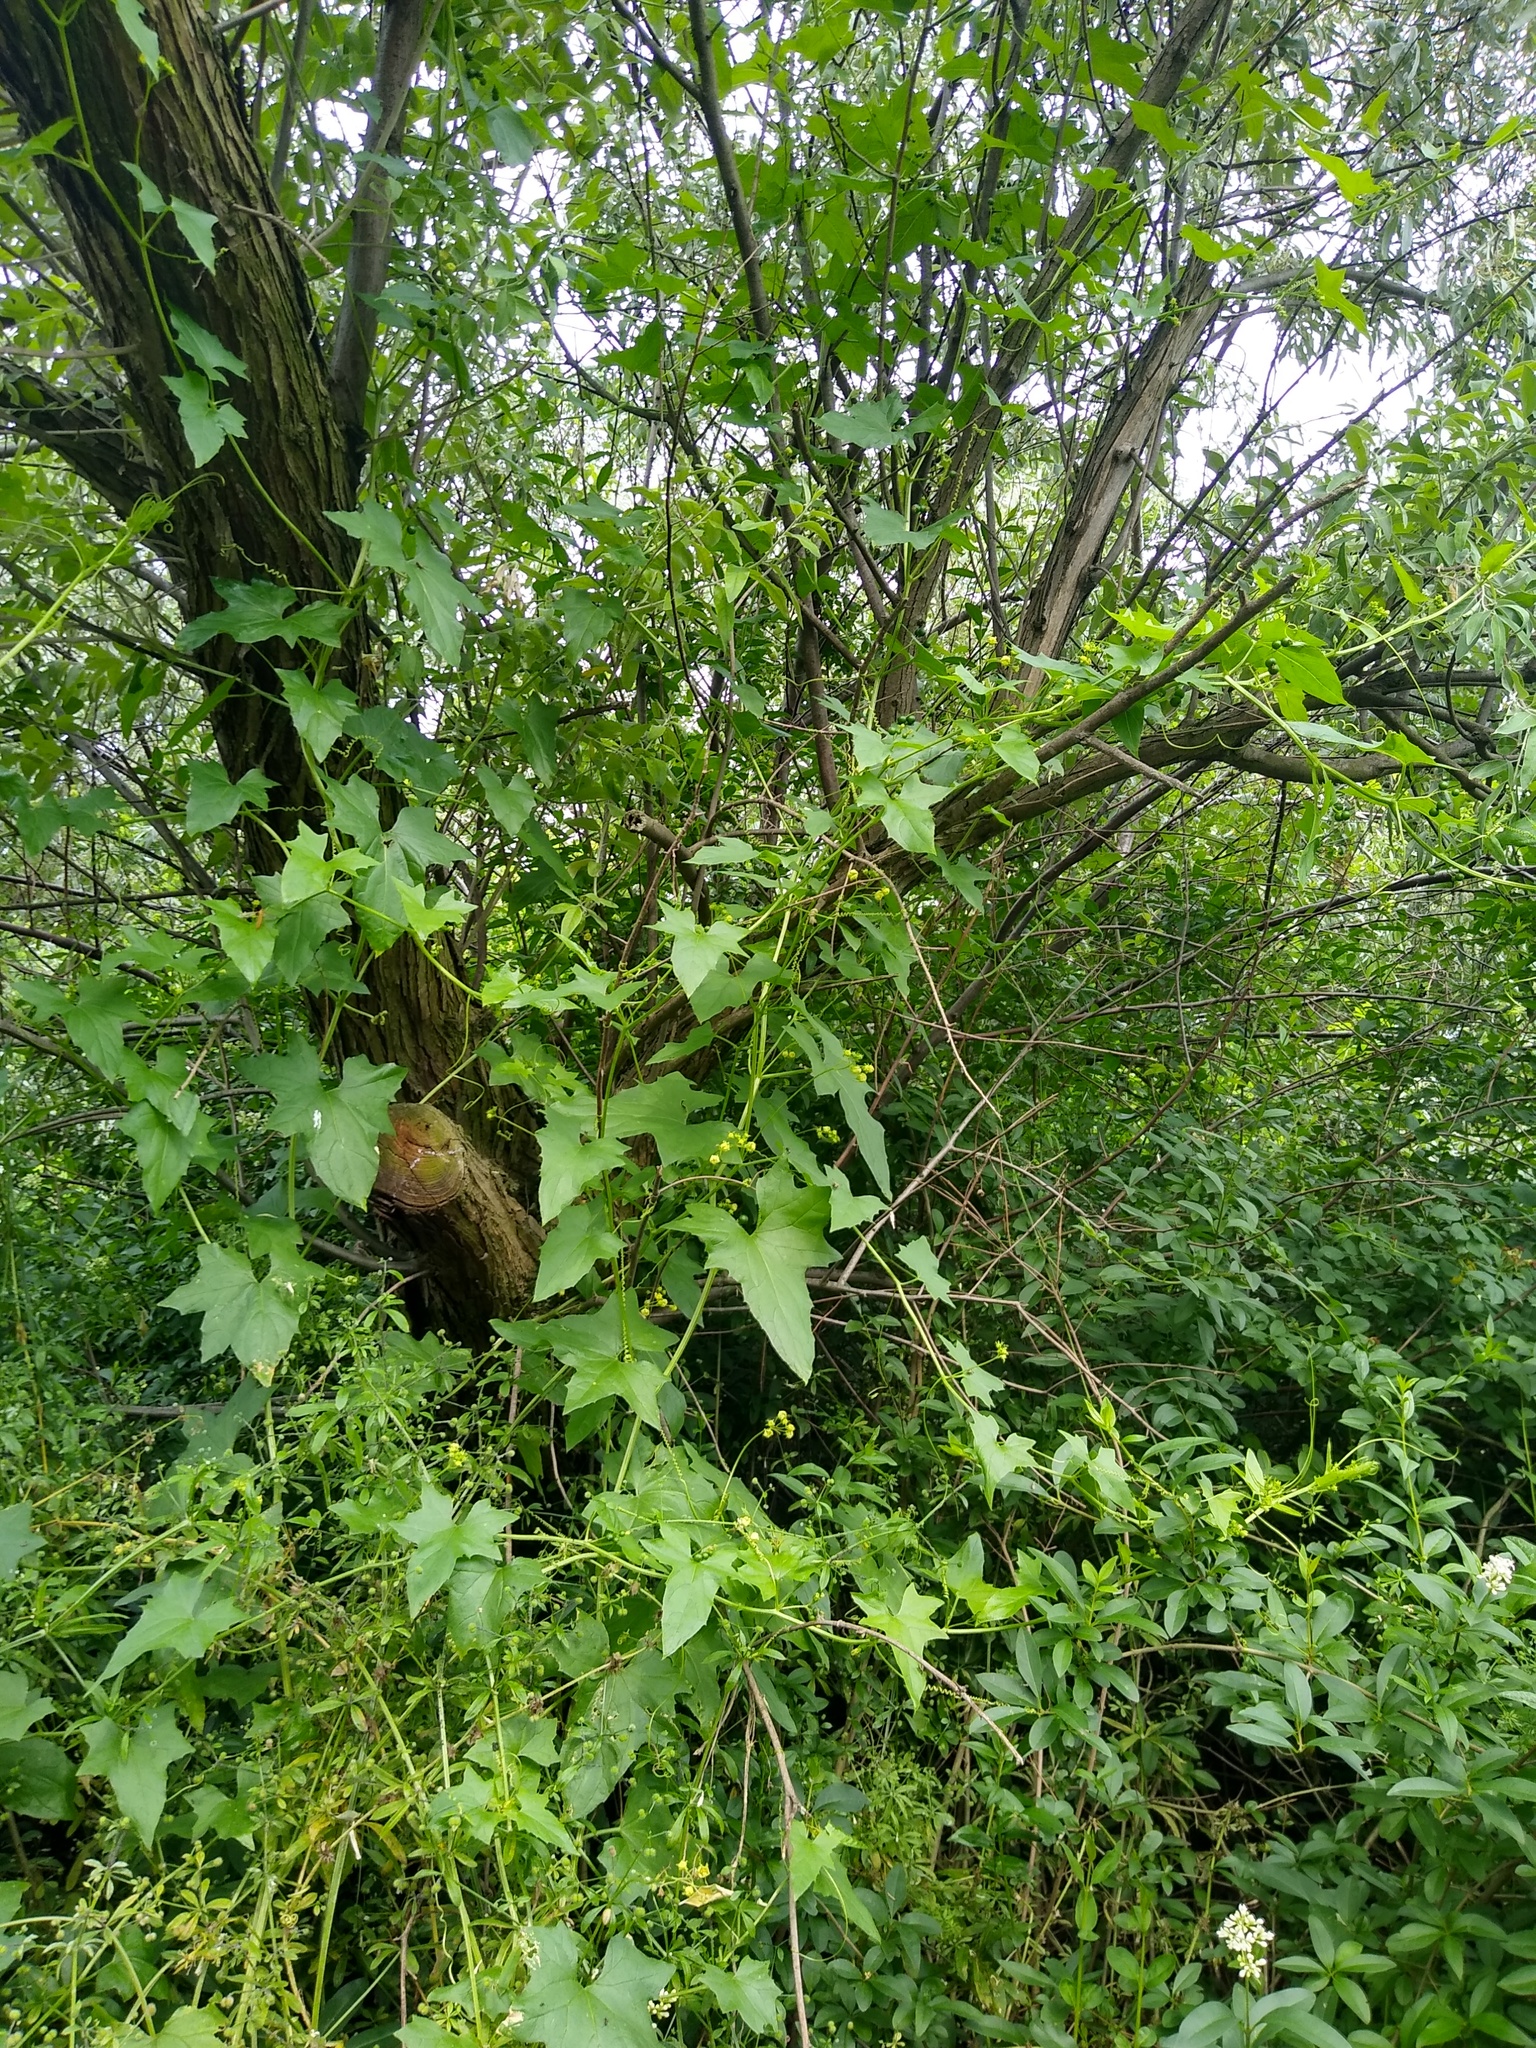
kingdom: Plantae
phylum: Tracheophyta
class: Magnoliopsida
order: Cucurbitales
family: Cucurbitaceae
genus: Bryonia
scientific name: Bryonia alba
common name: White bryony
